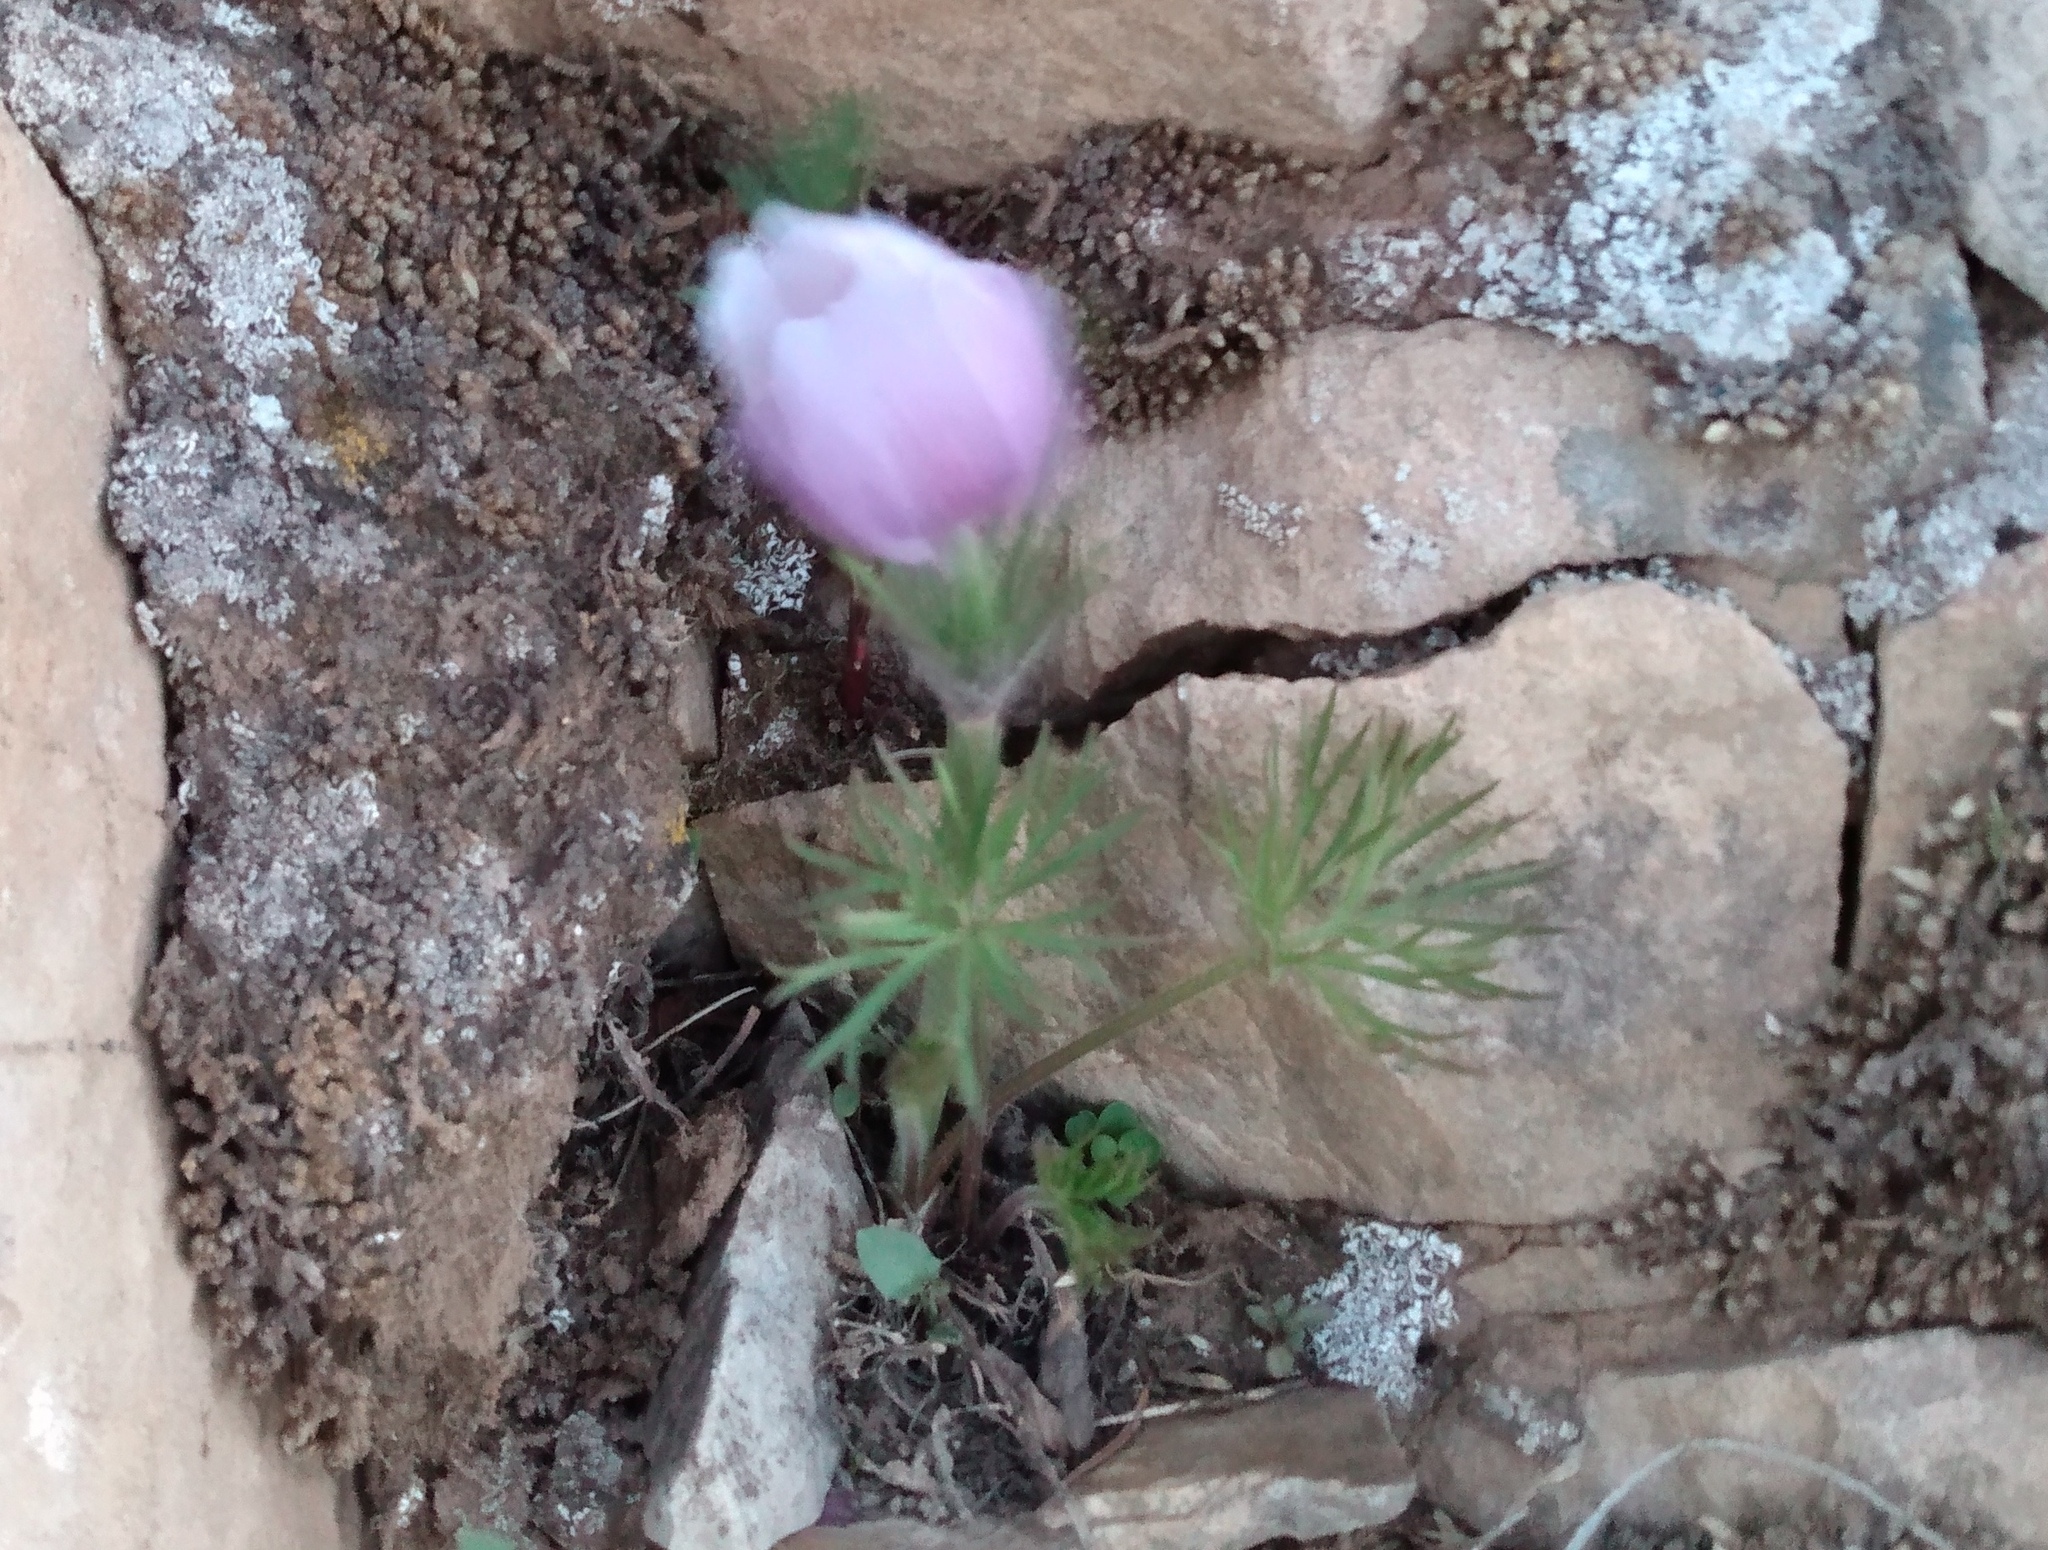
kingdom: Plantae
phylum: Tracheophyta
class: Magnoliopsida
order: Ranunculales
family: Ranunculaceae
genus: Pulsatilla
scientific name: Pulsatilla nuttalliana
